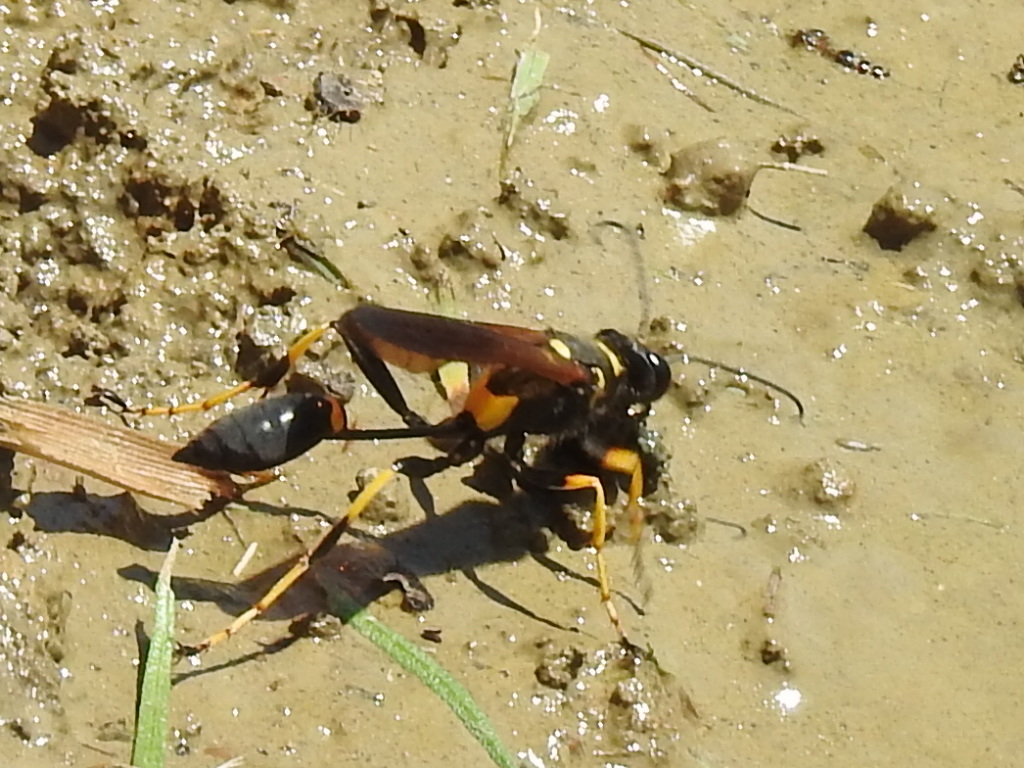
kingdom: Animalia
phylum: Arthropoda
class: Insecta
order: Hymenoptera
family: Sphecidae
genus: Sceliphron
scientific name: Sceliphron caementarium
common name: Mud dauber
